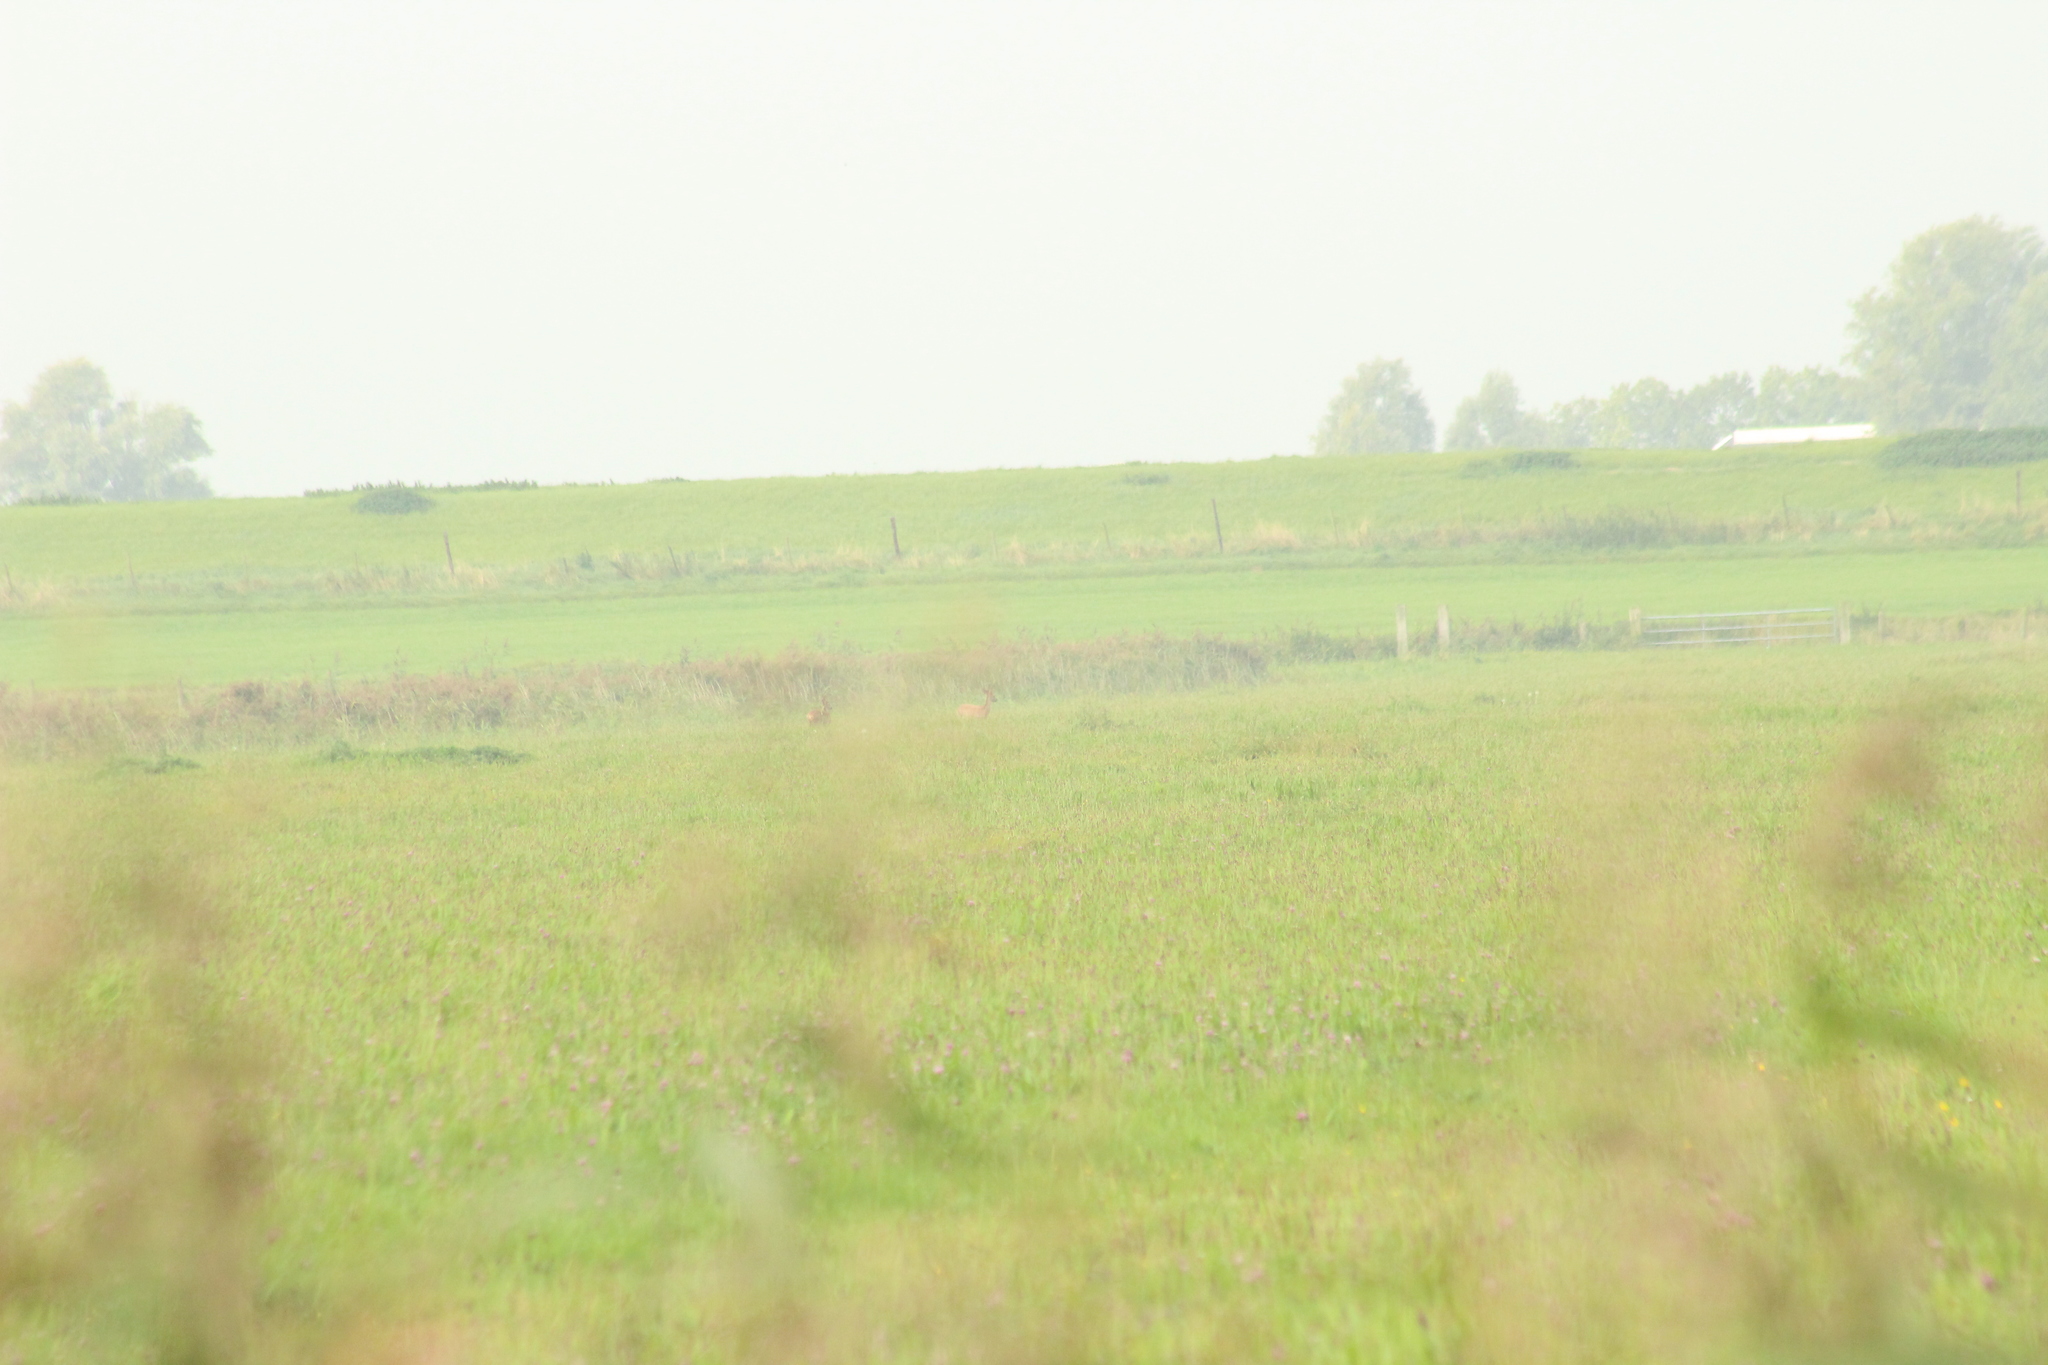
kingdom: Animalia
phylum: Chordata
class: Mammalia
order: Artiodactyla
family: Cervidae
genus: Capreolus
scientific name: Capreolus capreolus
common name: Western roe deer
